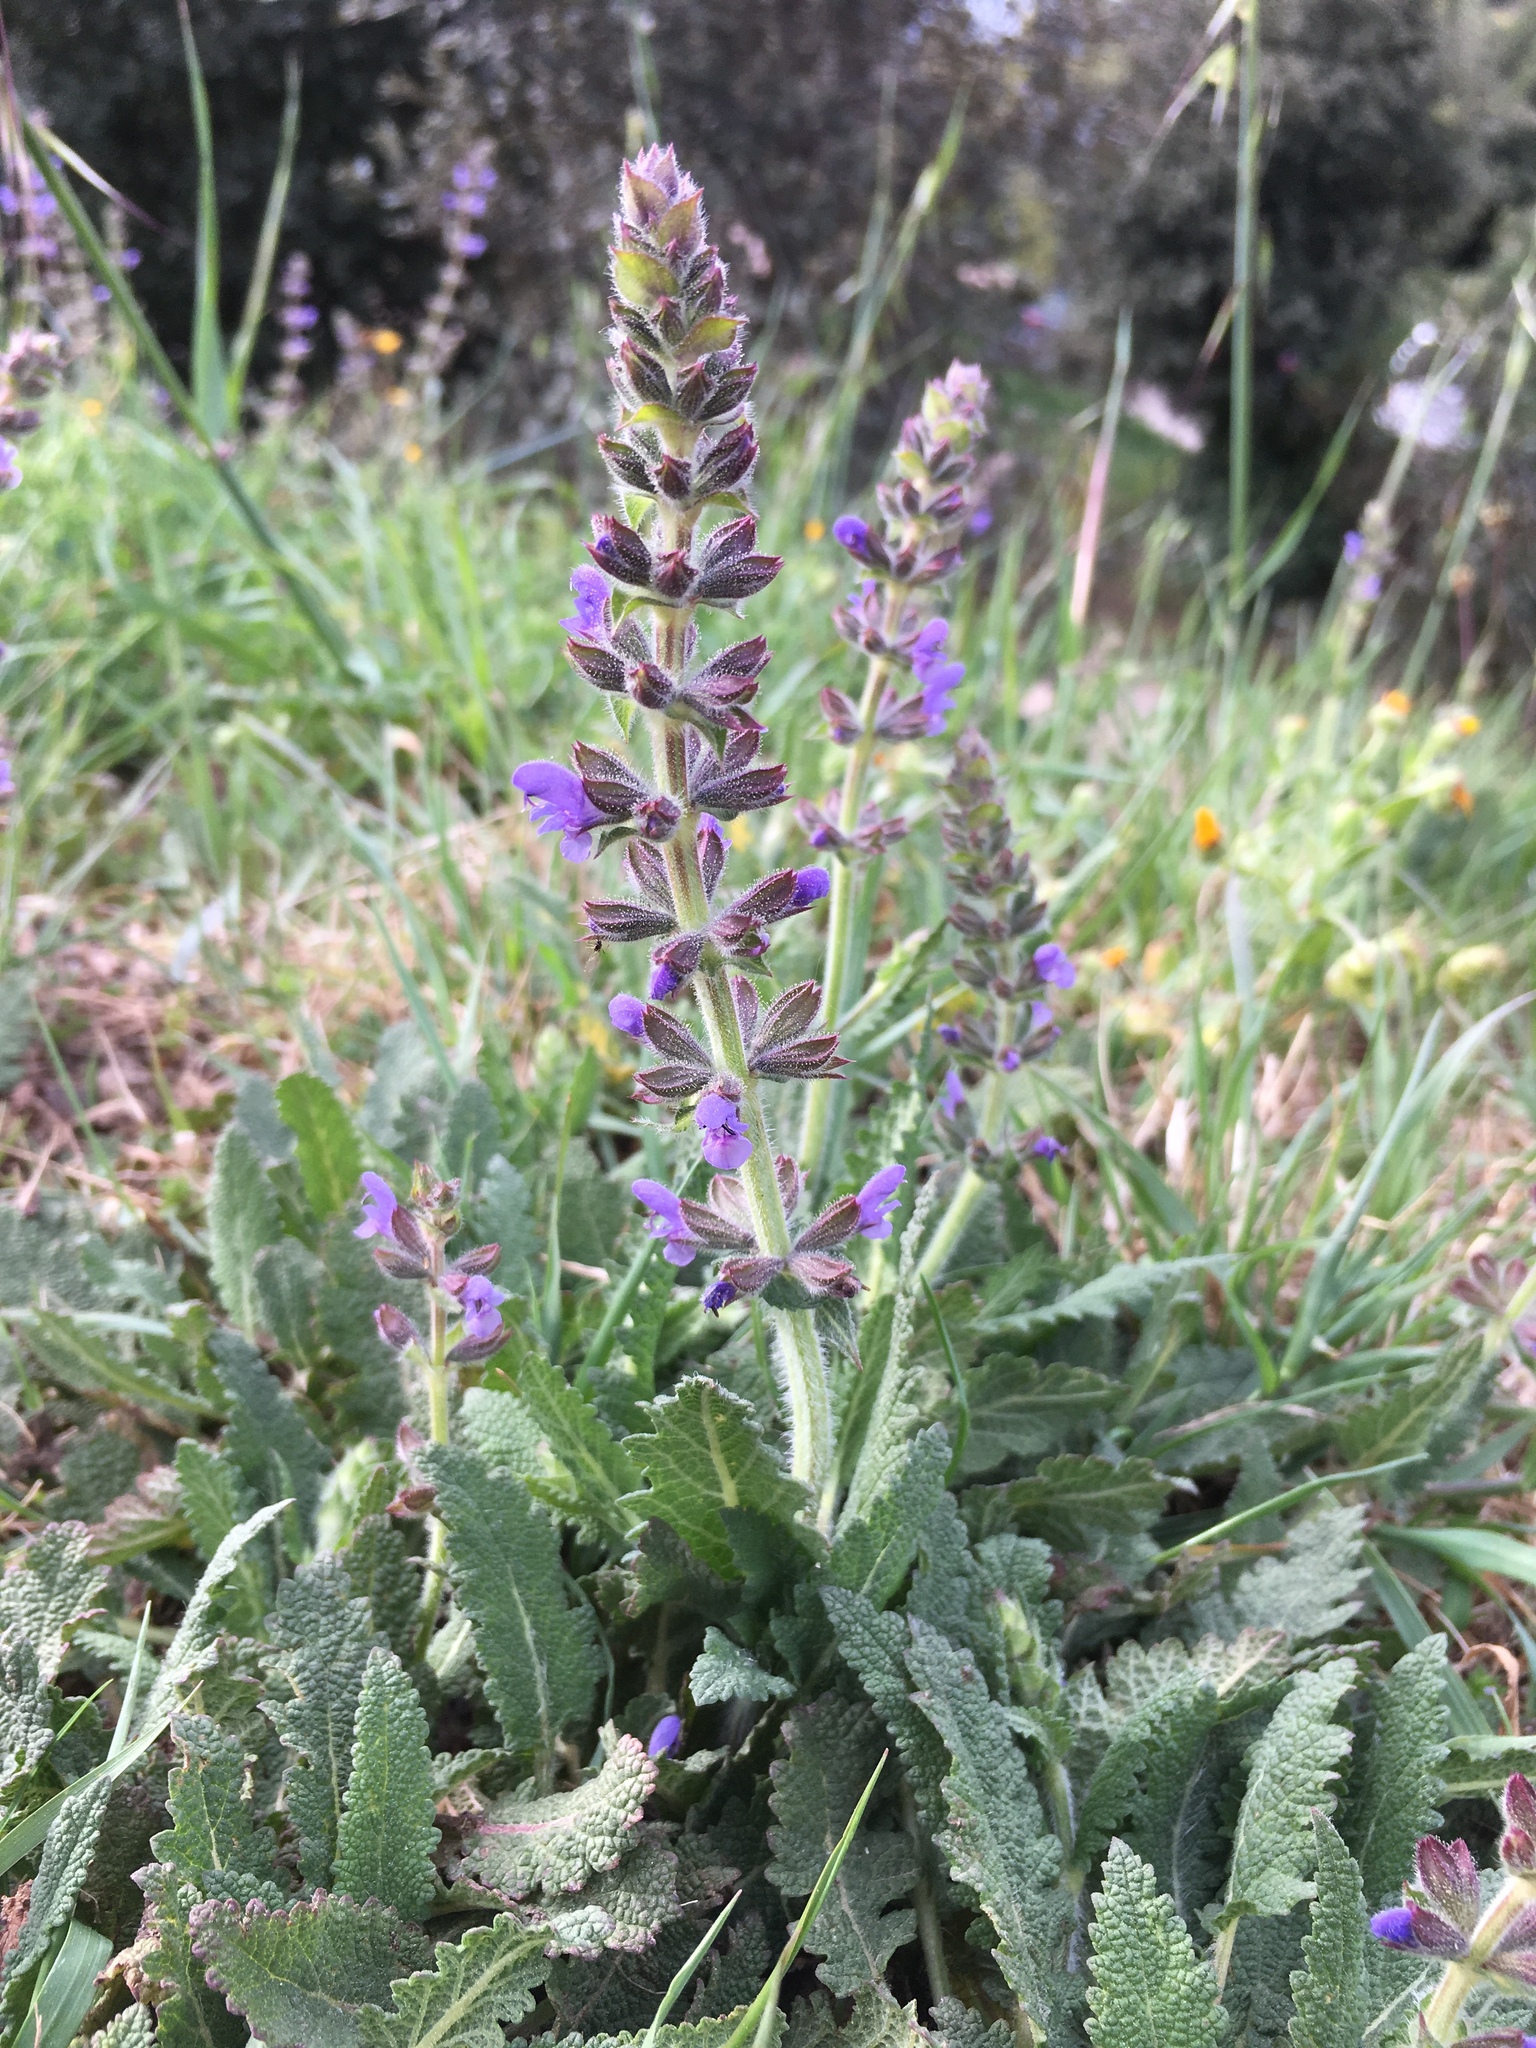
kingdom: Plantae
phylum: Tracheophyta
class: Magnoliopsida
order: Lamiales
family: Lamiaceae
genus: Salvia
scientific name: Salvia verbenaca
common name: Wild clary
